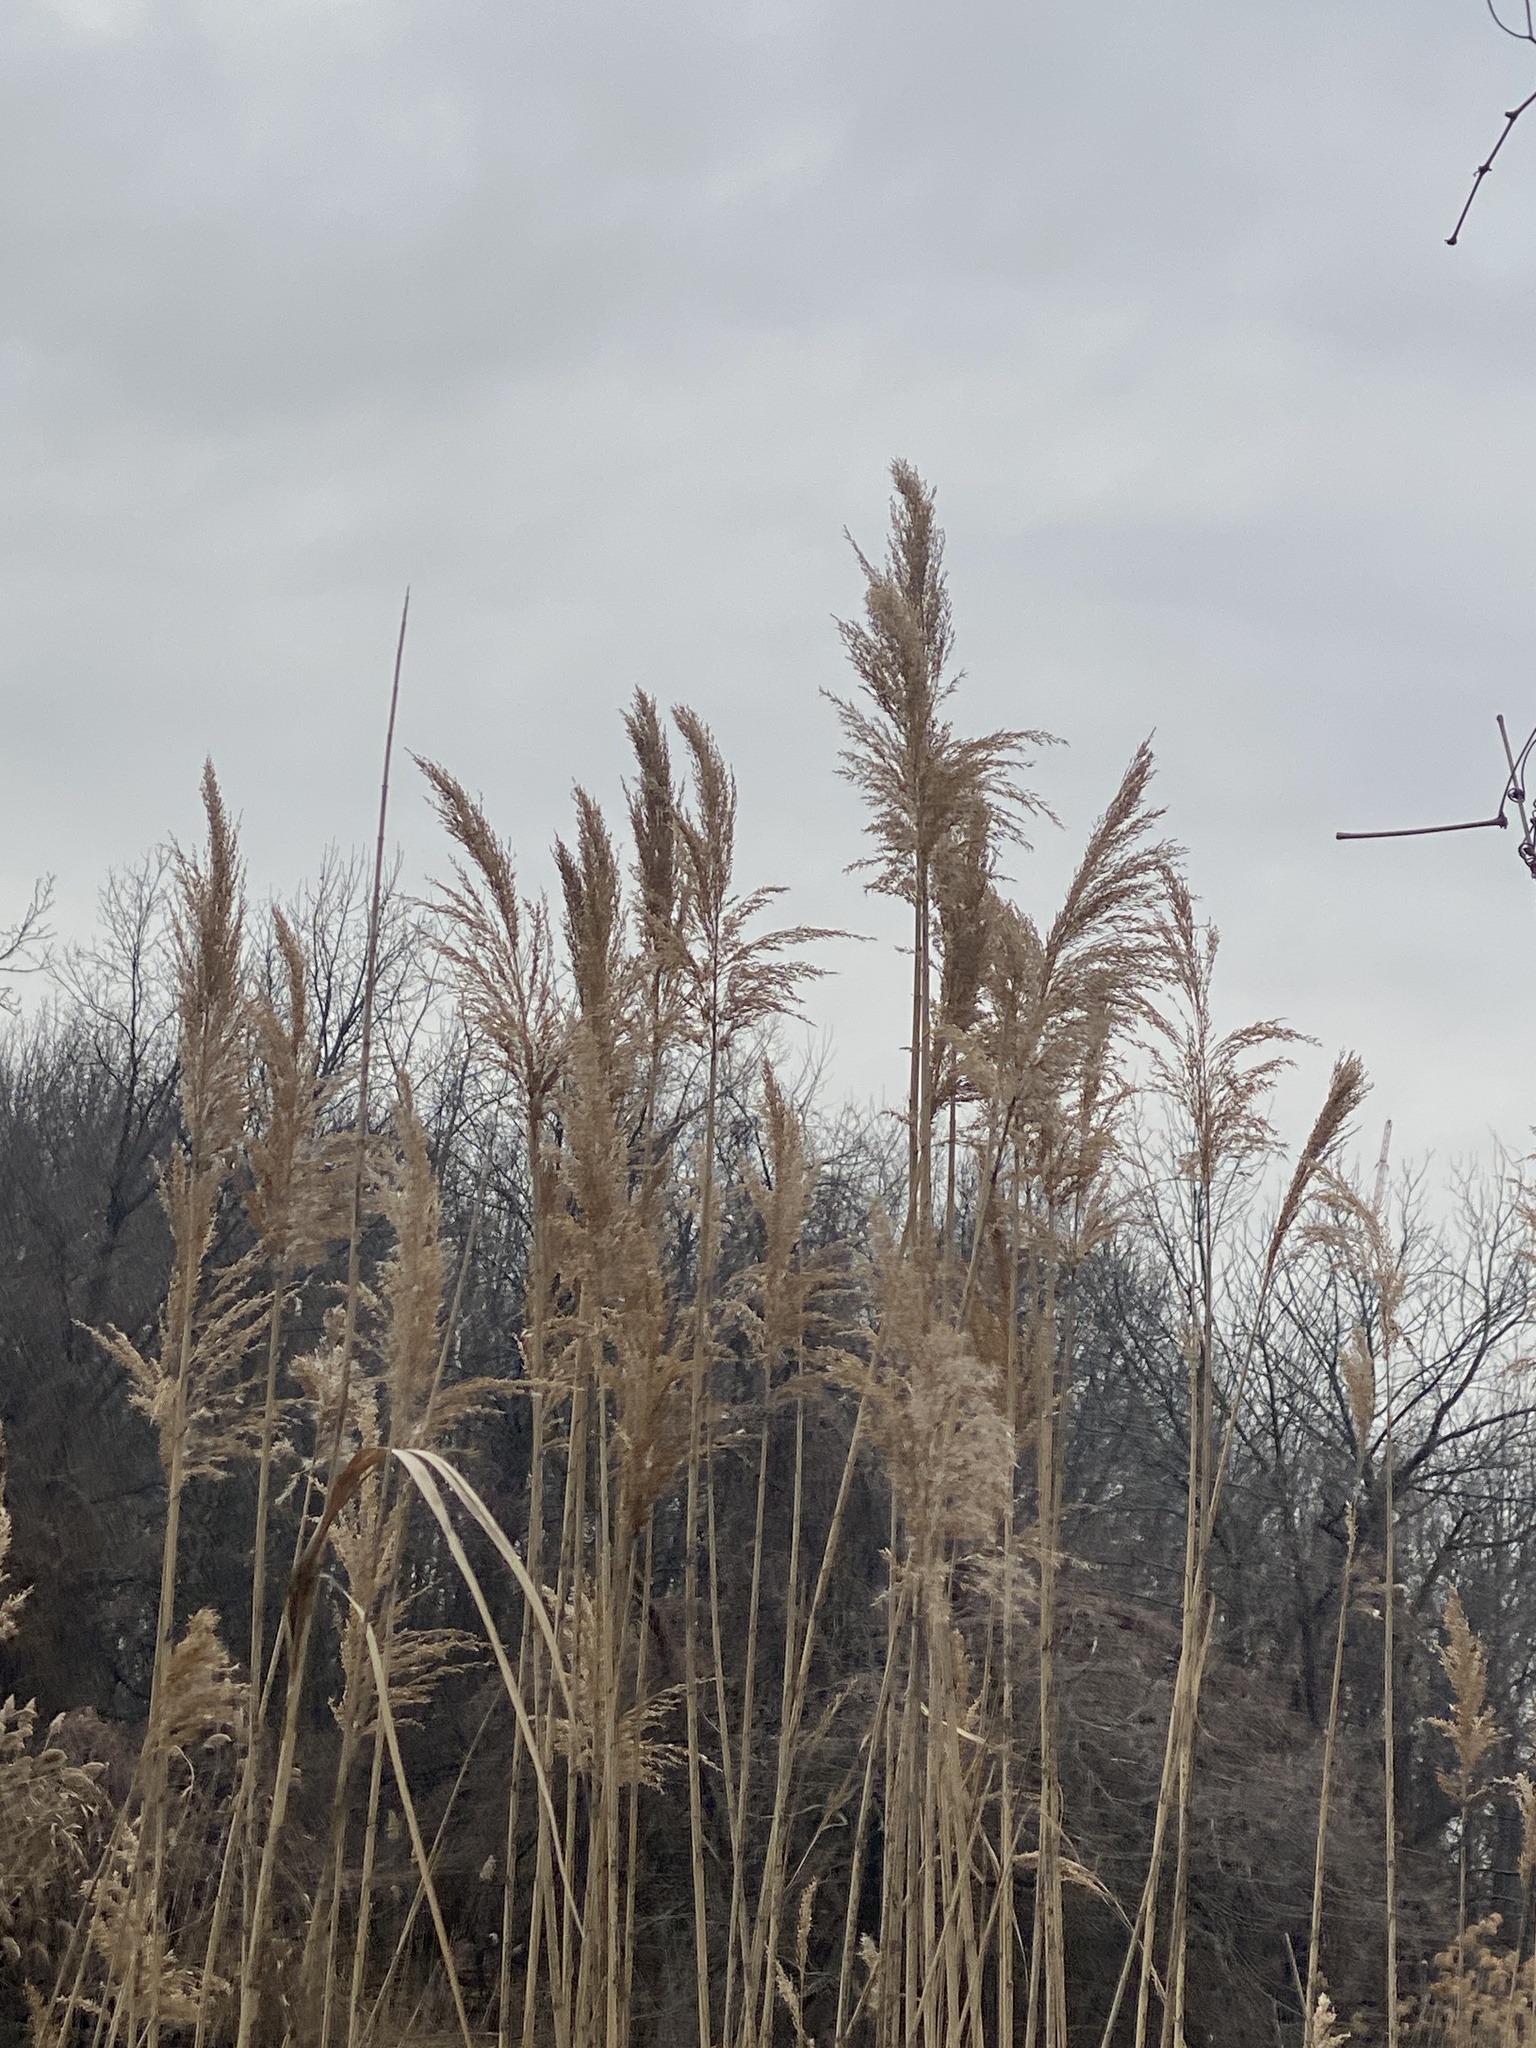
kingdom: Plantae
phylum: Tracheophyta
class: Liliopsida
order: Poales
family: Poaceae
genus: Phragmites
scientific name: Phragmites australis
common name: Common reed
